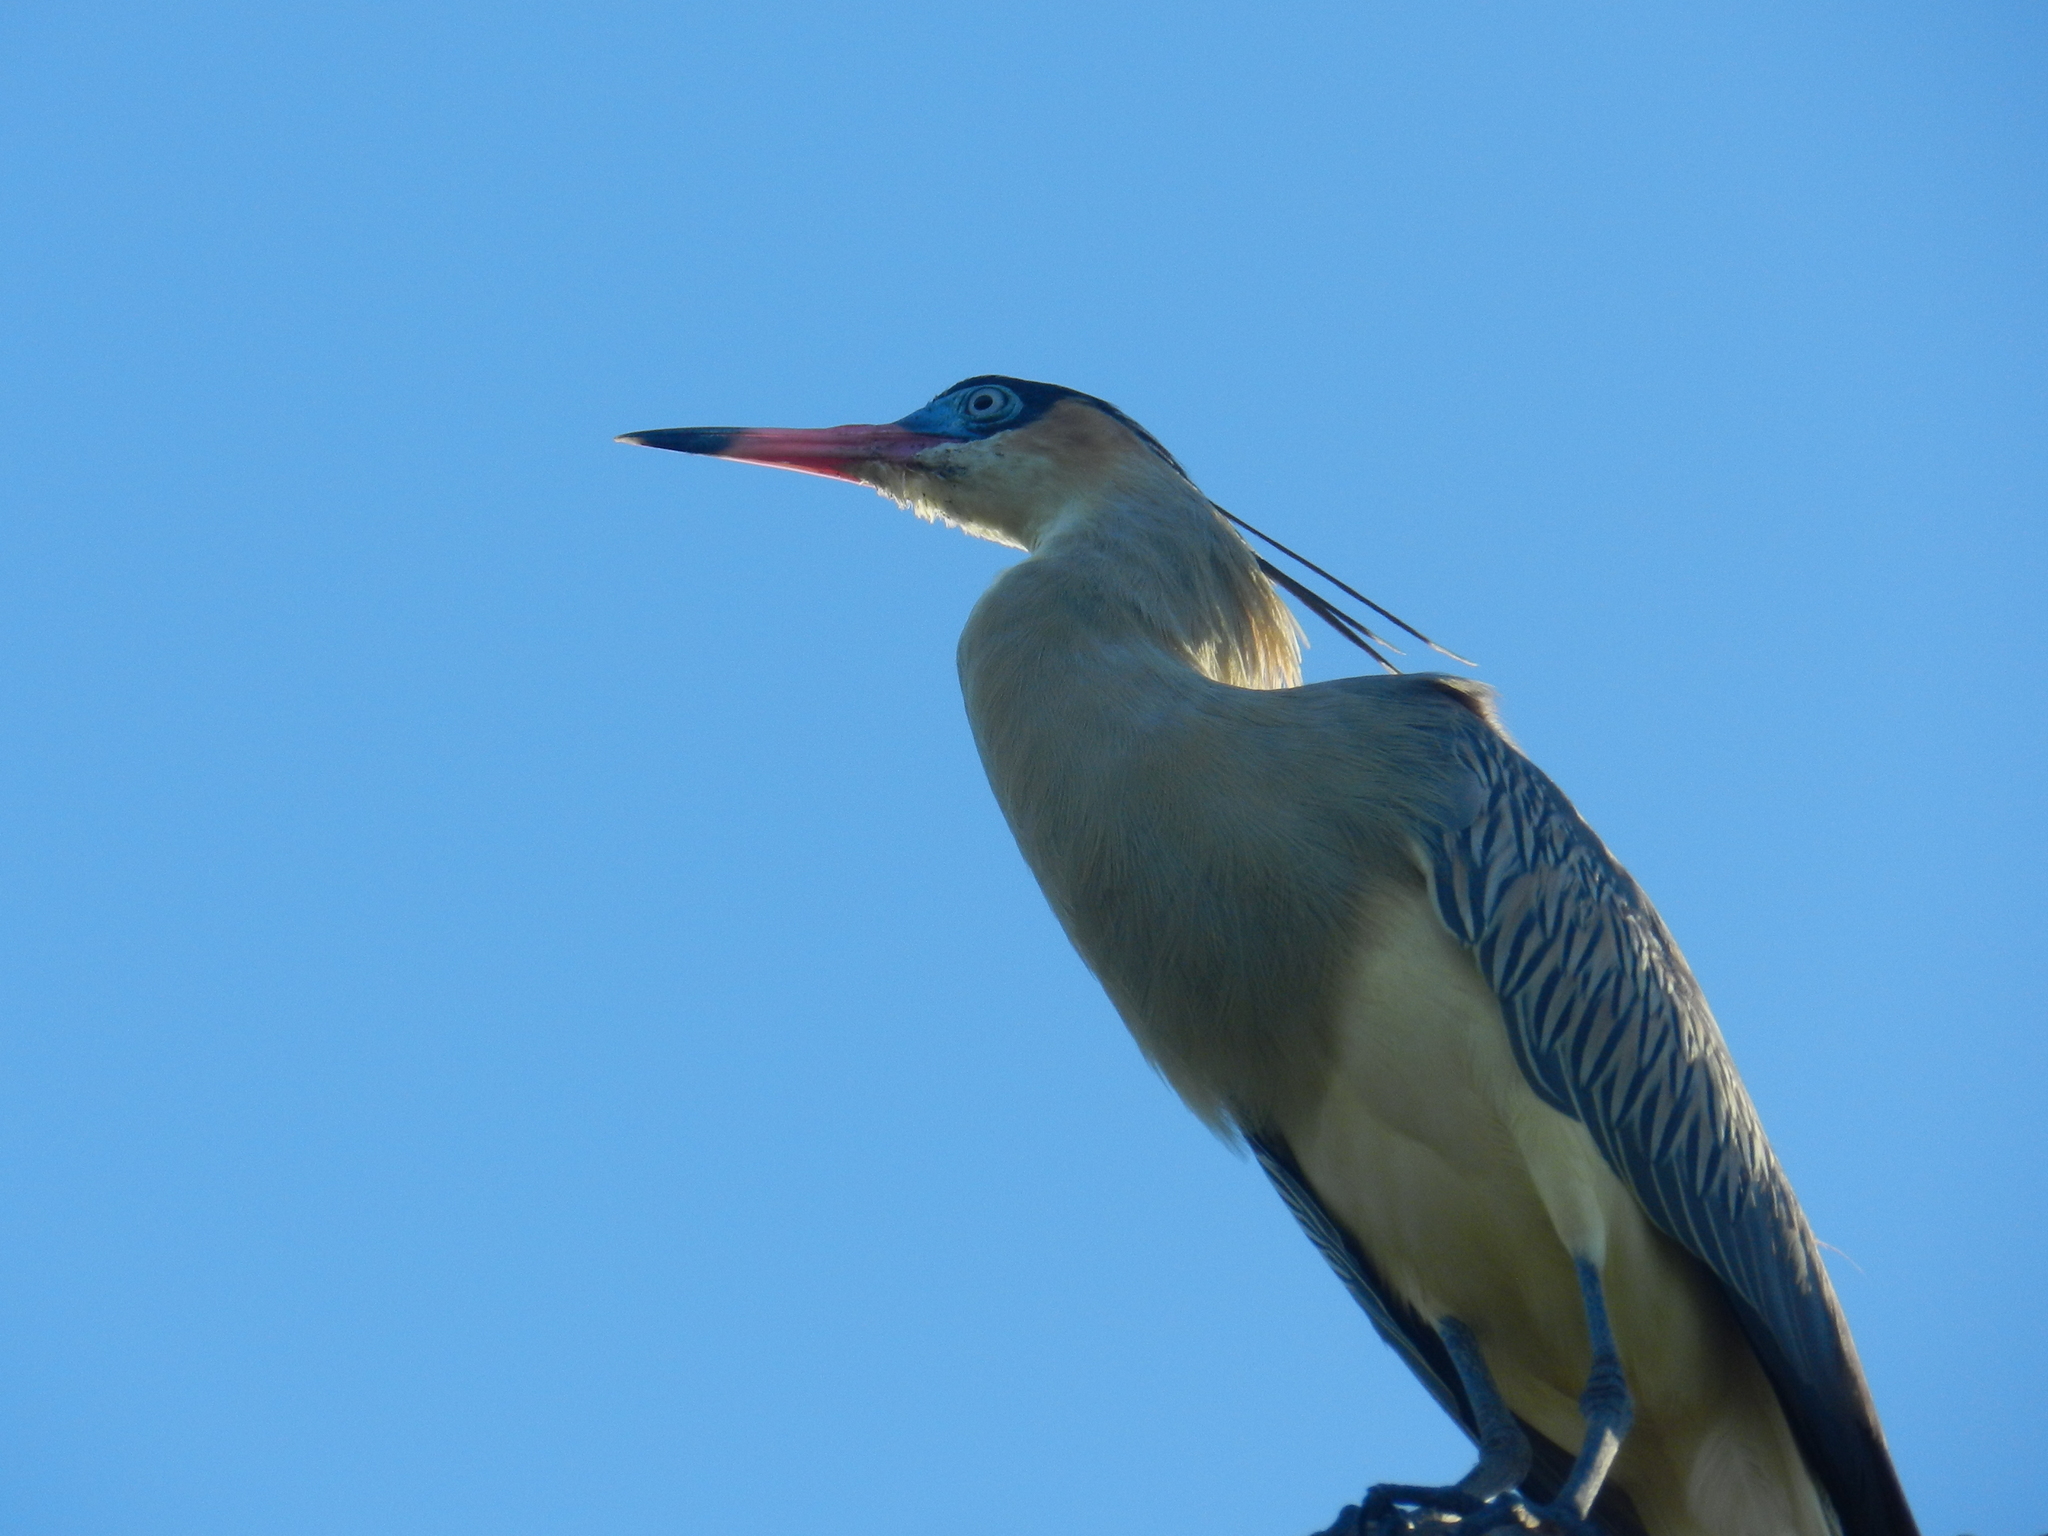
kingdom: Animalia
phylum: Chordata
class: Aves
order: Pelecaniformes
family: Ardeidae
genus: Syrigma
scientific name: Syrigma sibilatrix
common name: Whistling heron
